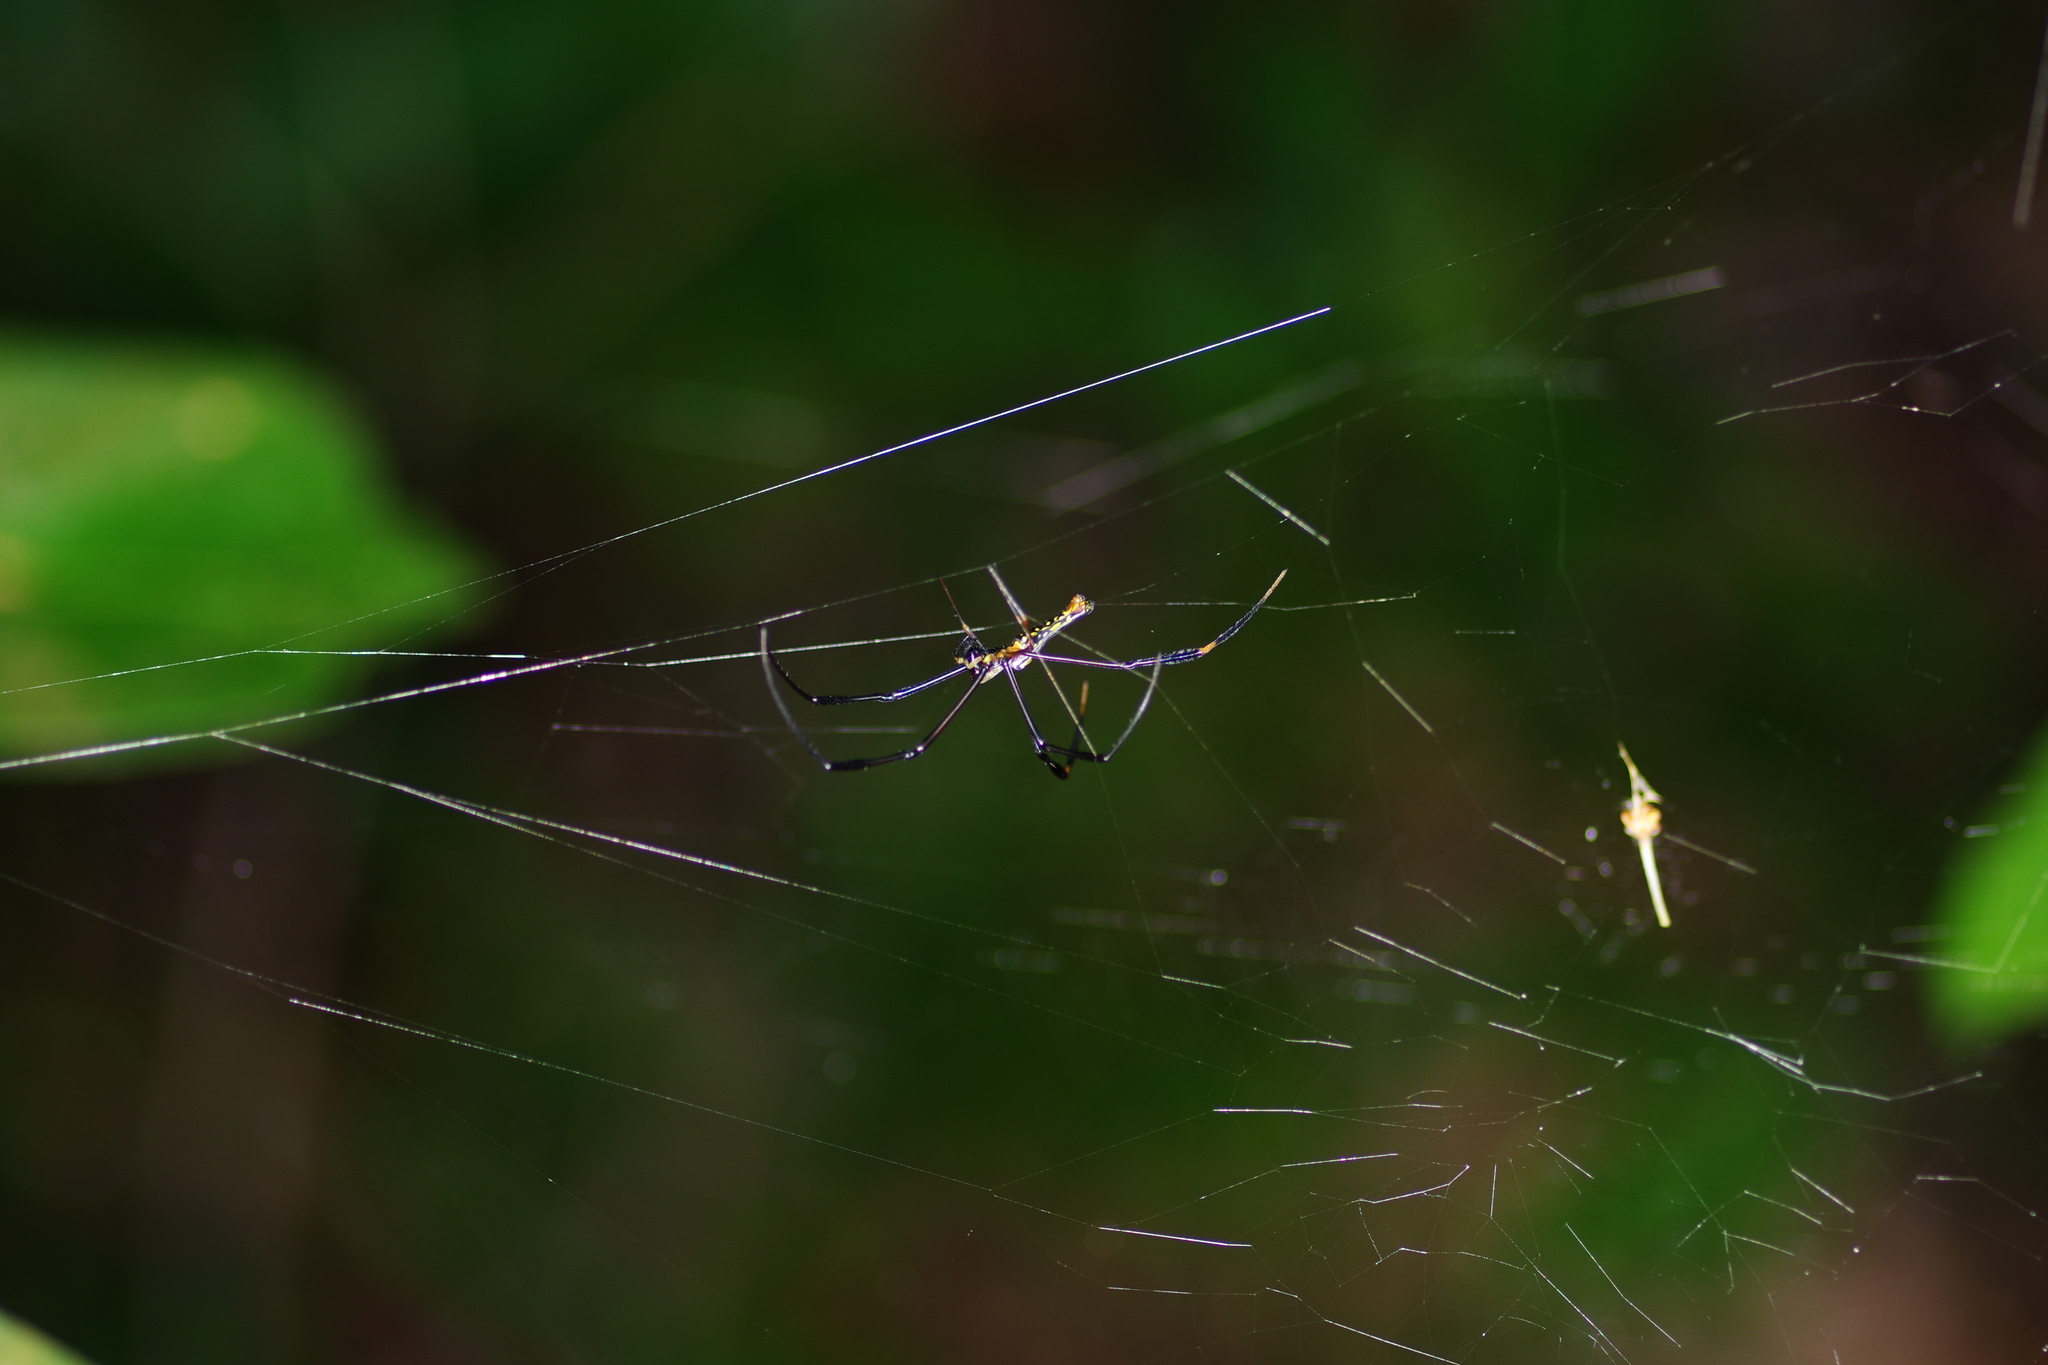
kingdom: Animalia
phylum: Arthropoda
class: Arachnida
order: Araneae
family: Araneidae
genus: Nephila
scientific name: Nephila pilipes
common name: Giant golden orb weaver
